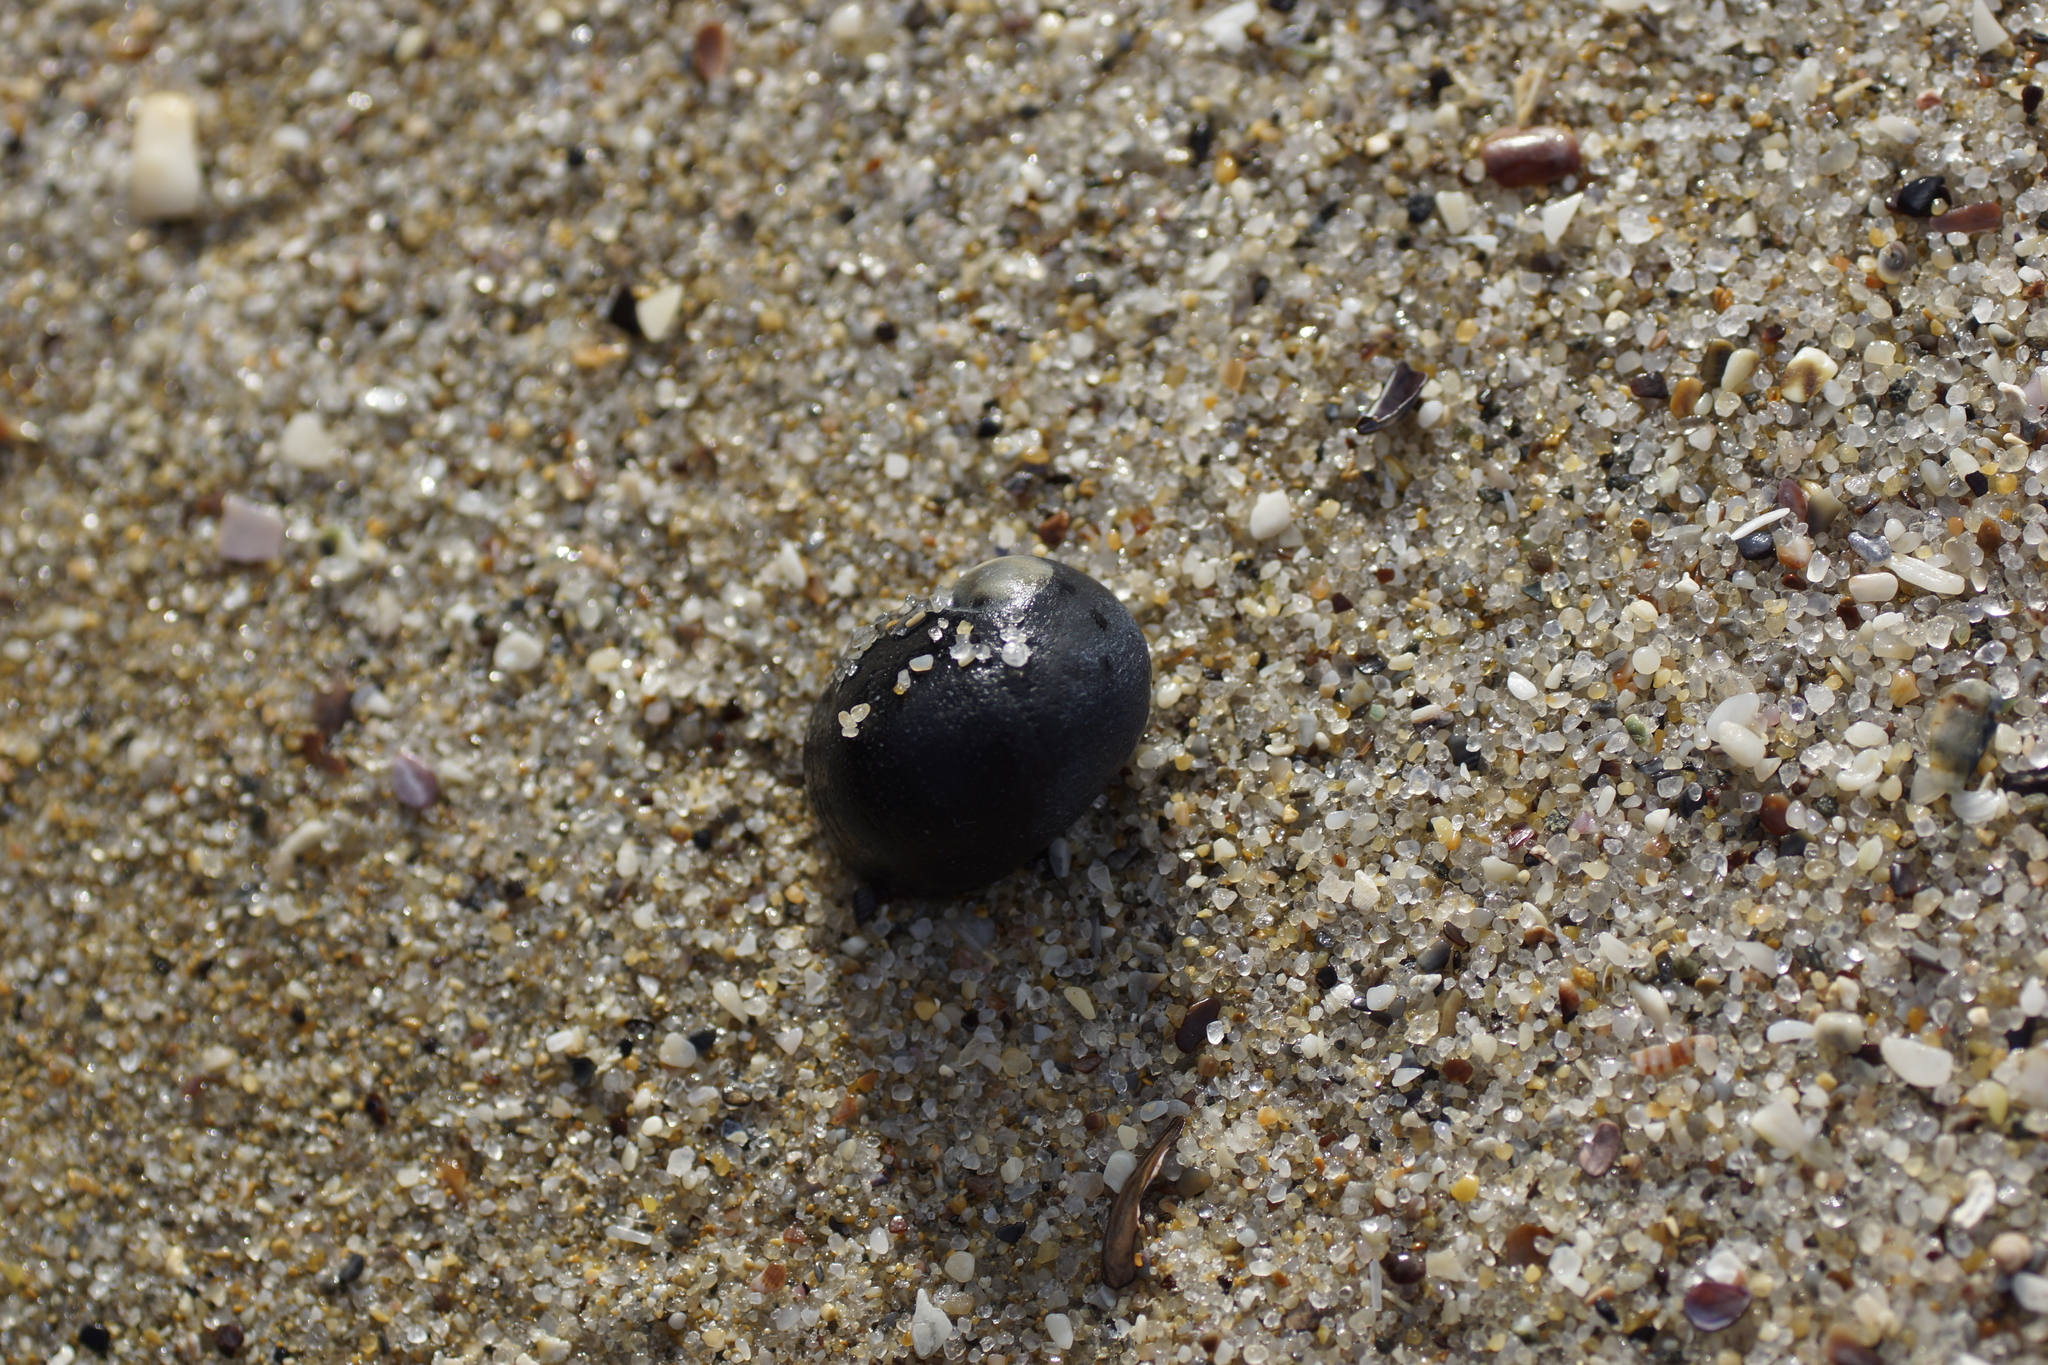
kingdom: Animalia
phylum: Mollusca
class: Gastropoda
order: Cycloneritida
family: Neritidae
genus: Nerita
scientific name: Nerita atramentosa
